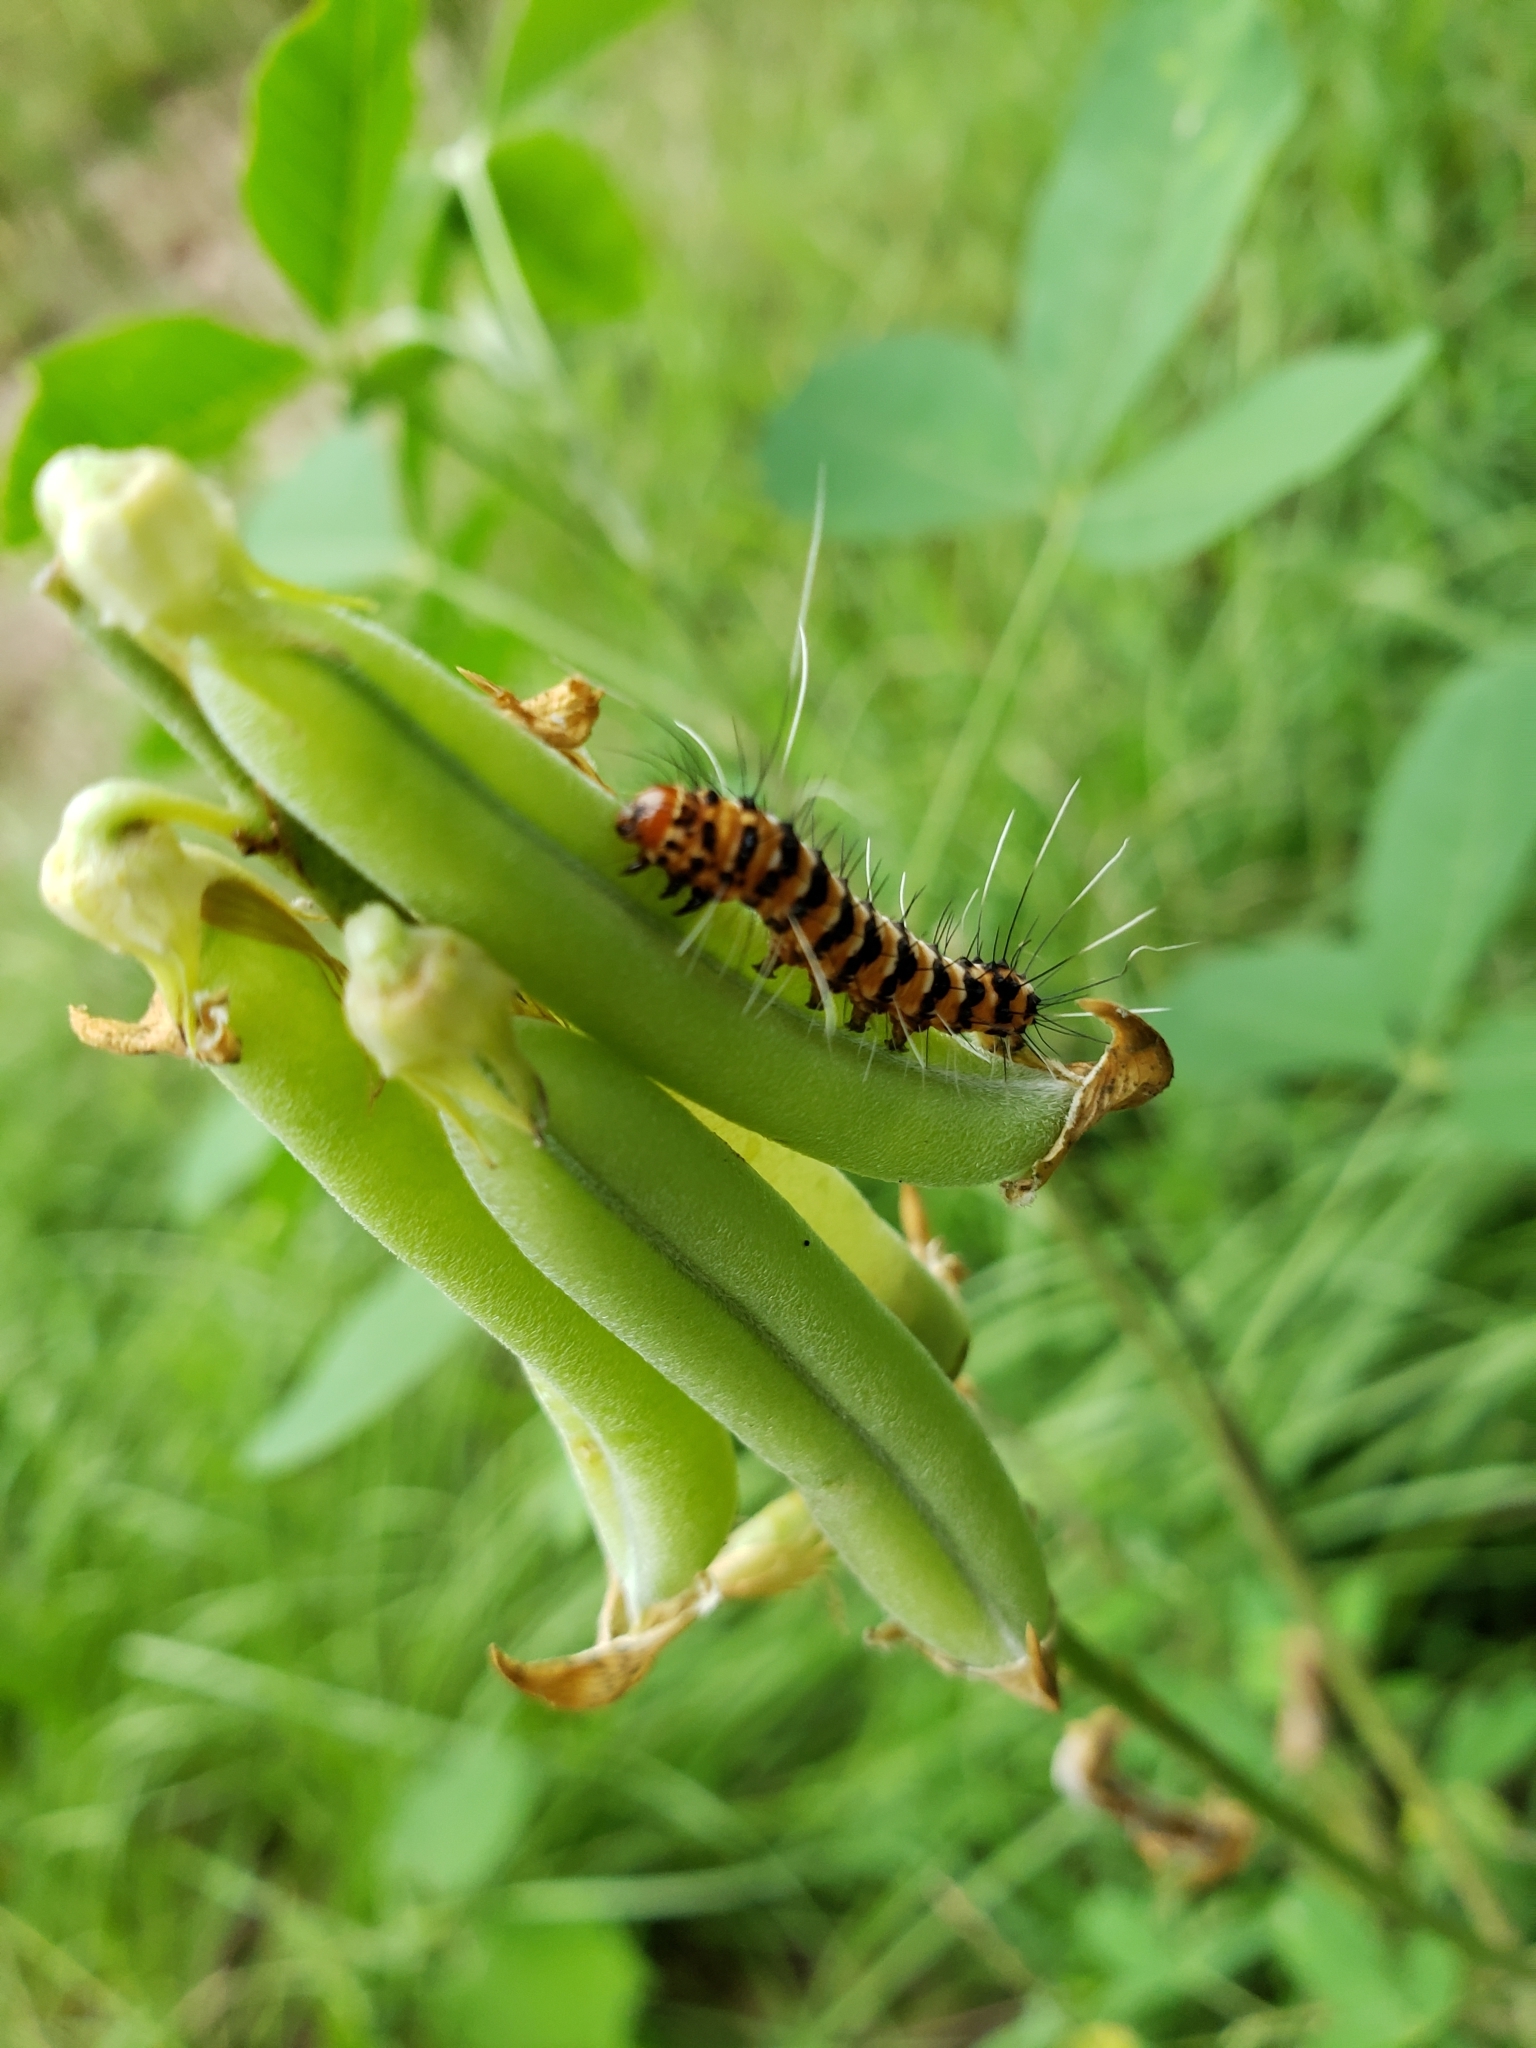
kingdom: Animalia
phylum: Arthropoda
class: Insecta
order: Lepidoptera
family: Erebidae
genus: Utetheisa
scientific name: Utetheisa ornatrix
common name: Beautiful utetheisa
